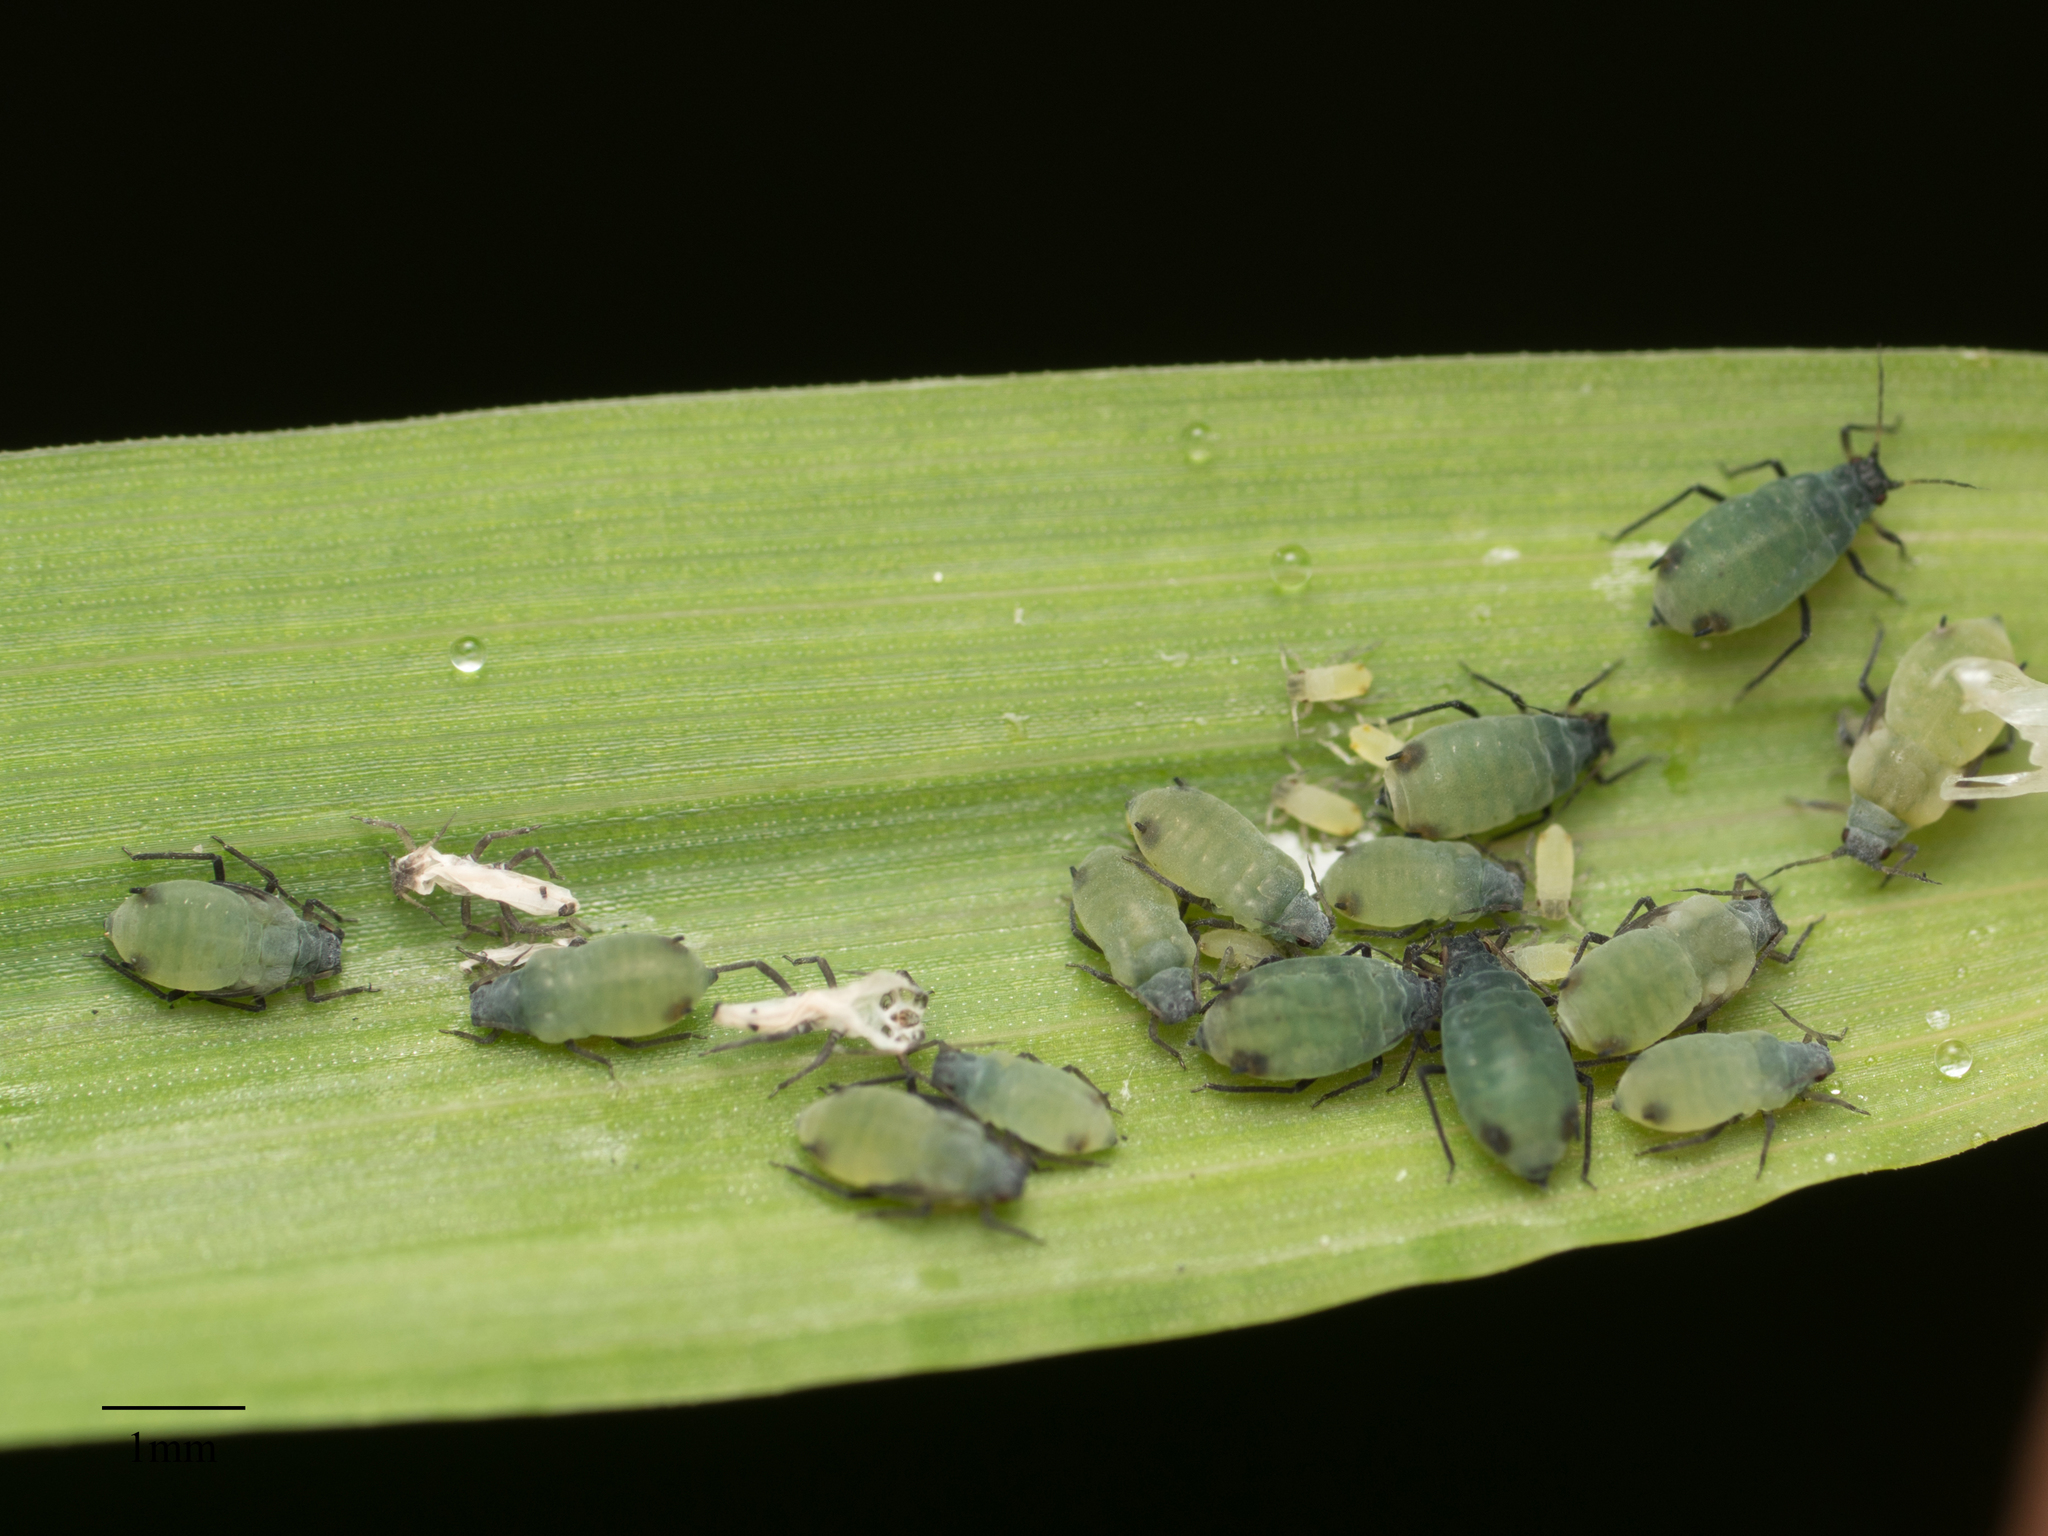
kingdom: Animalia
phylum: Arthropoda
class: Insecta
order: Hemiptera
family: Aphididae
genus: Rhopalosiphum
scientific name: Rhopalosiphum maidis
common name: Corn leaf aphid
